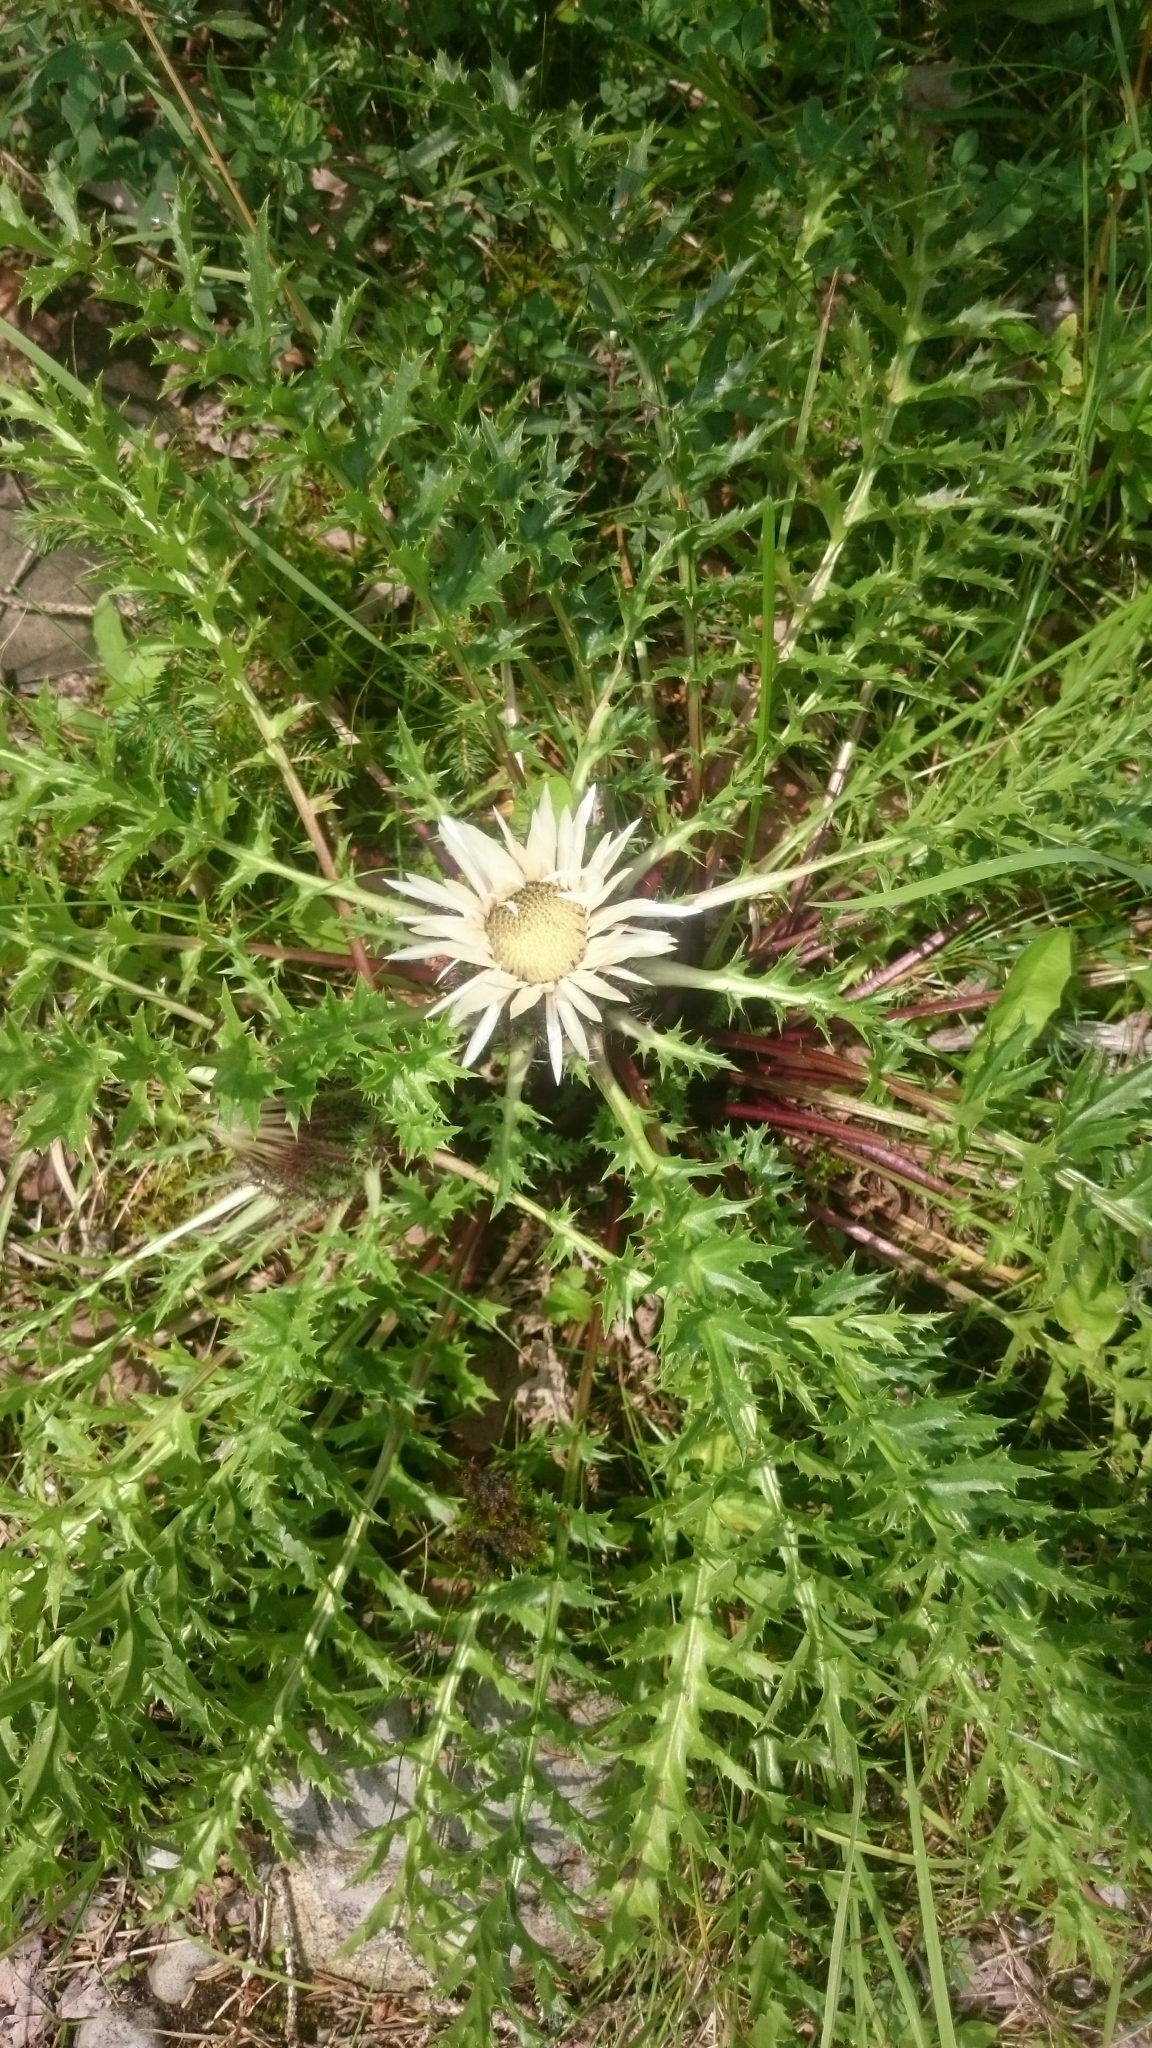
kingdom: Plantae
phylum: Tracheophyta
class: Magnoliopsida
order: Asterales
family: Asteraceae
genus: Carlina
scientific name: Carlina acaulis
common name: Stemless carline thistle
